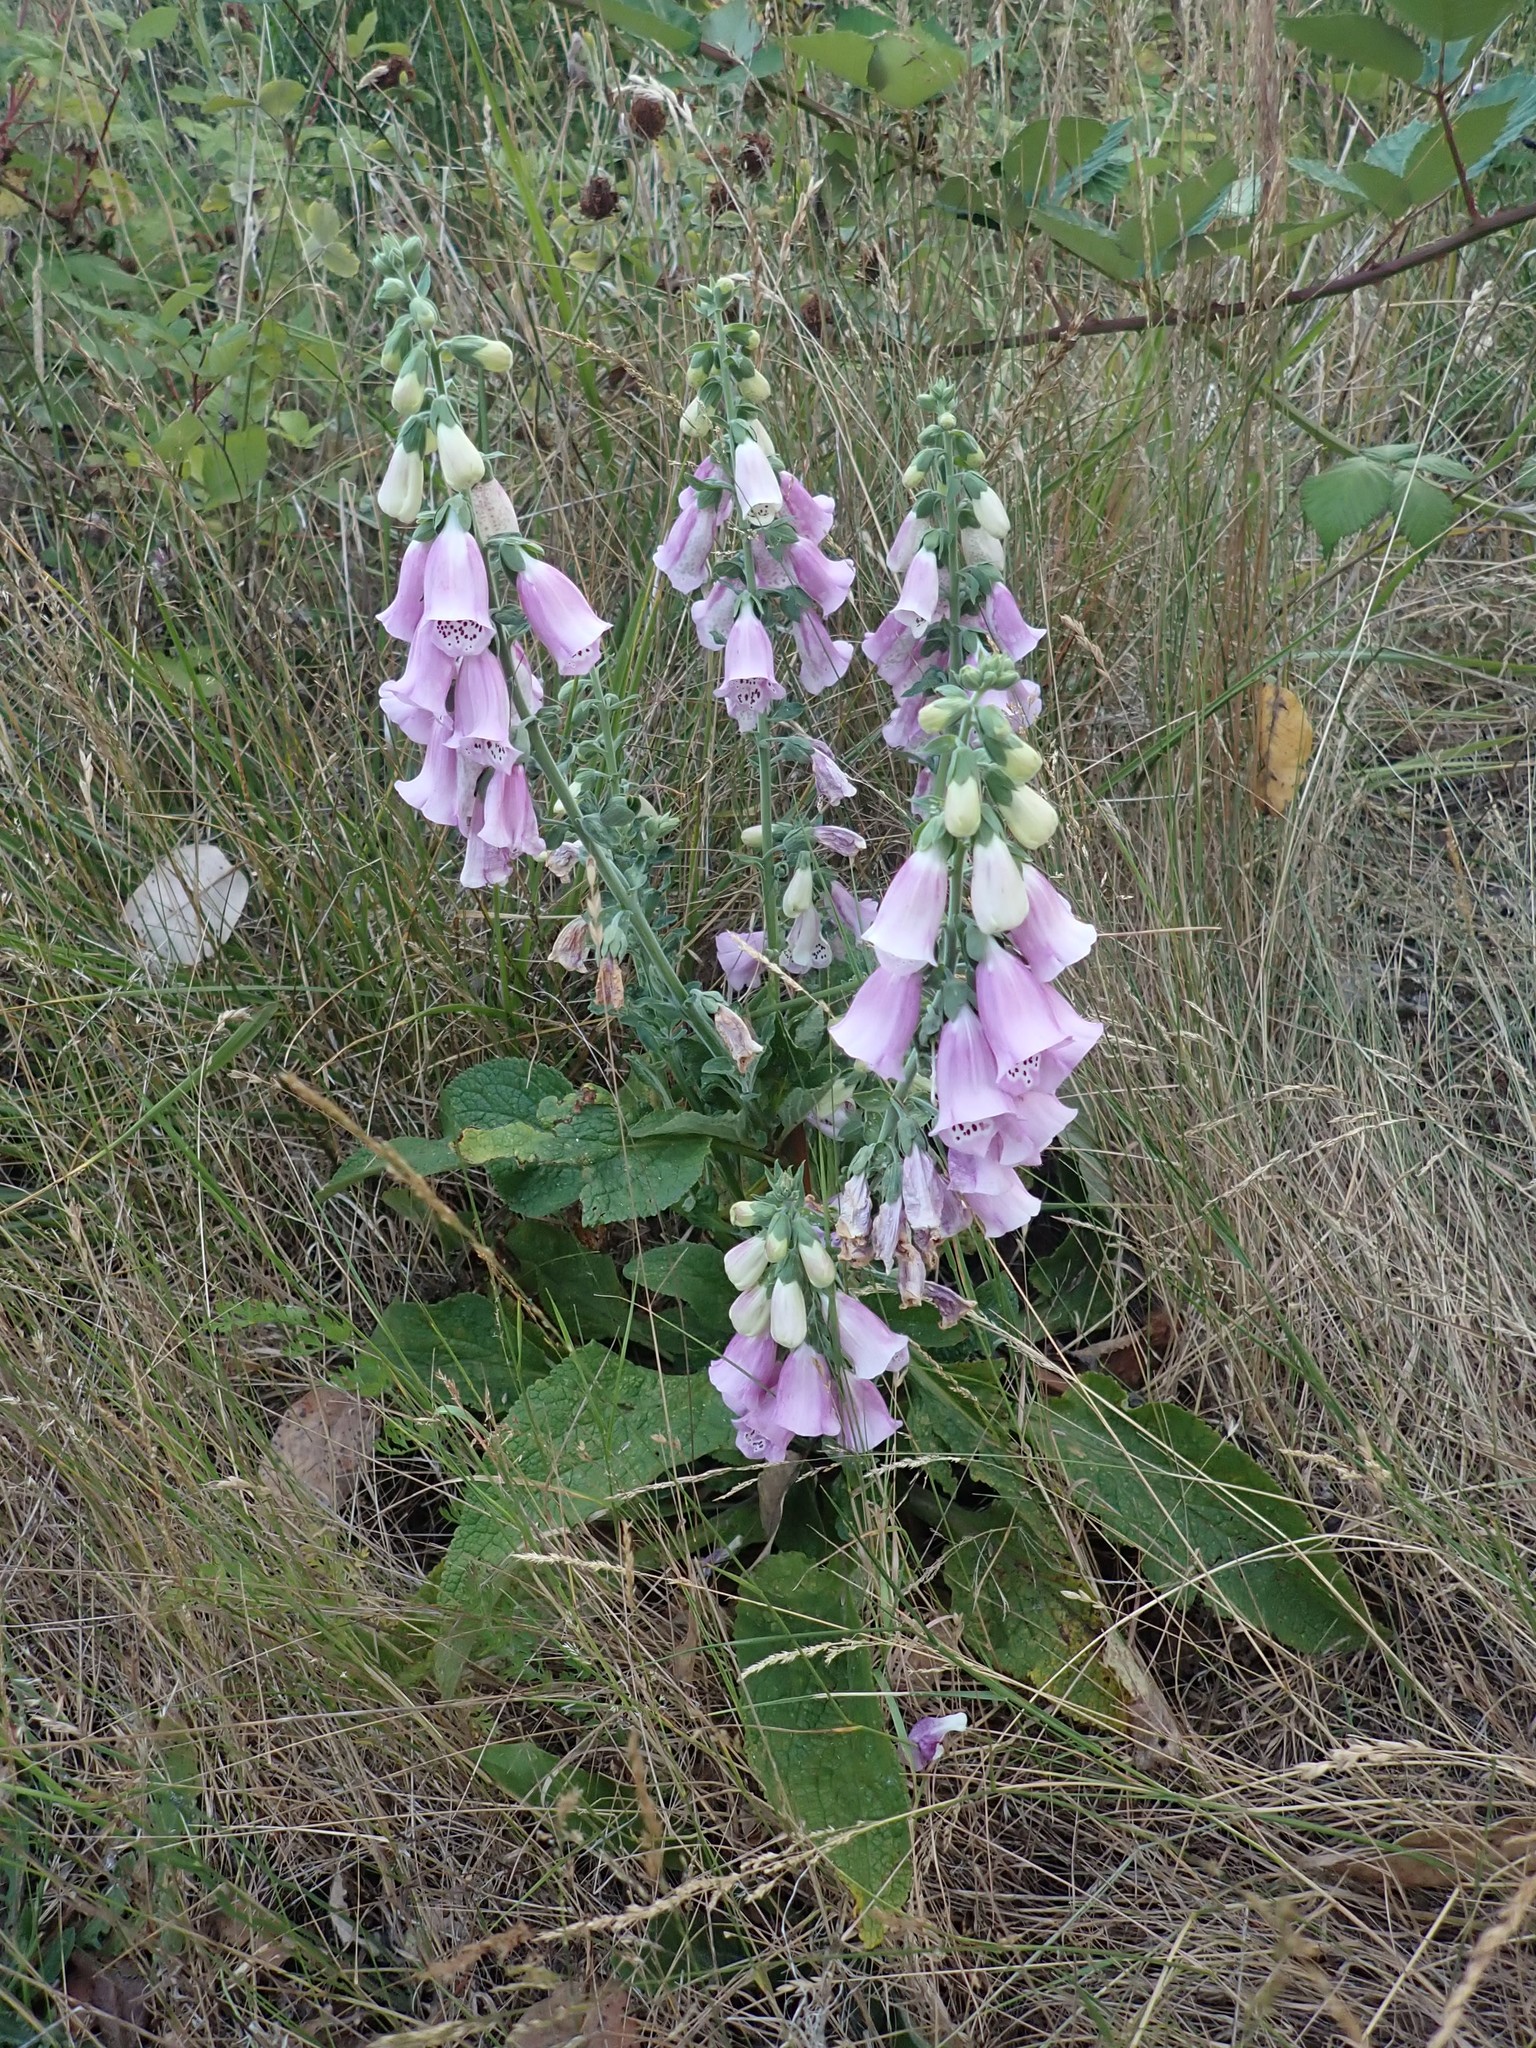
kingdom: Plantae
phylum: Tracheophyta
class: Magnoliopsida
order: Lamiales
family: Plantaginaceae
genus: Digitalis
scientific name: Digitalis purpurea
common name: Foxglove
